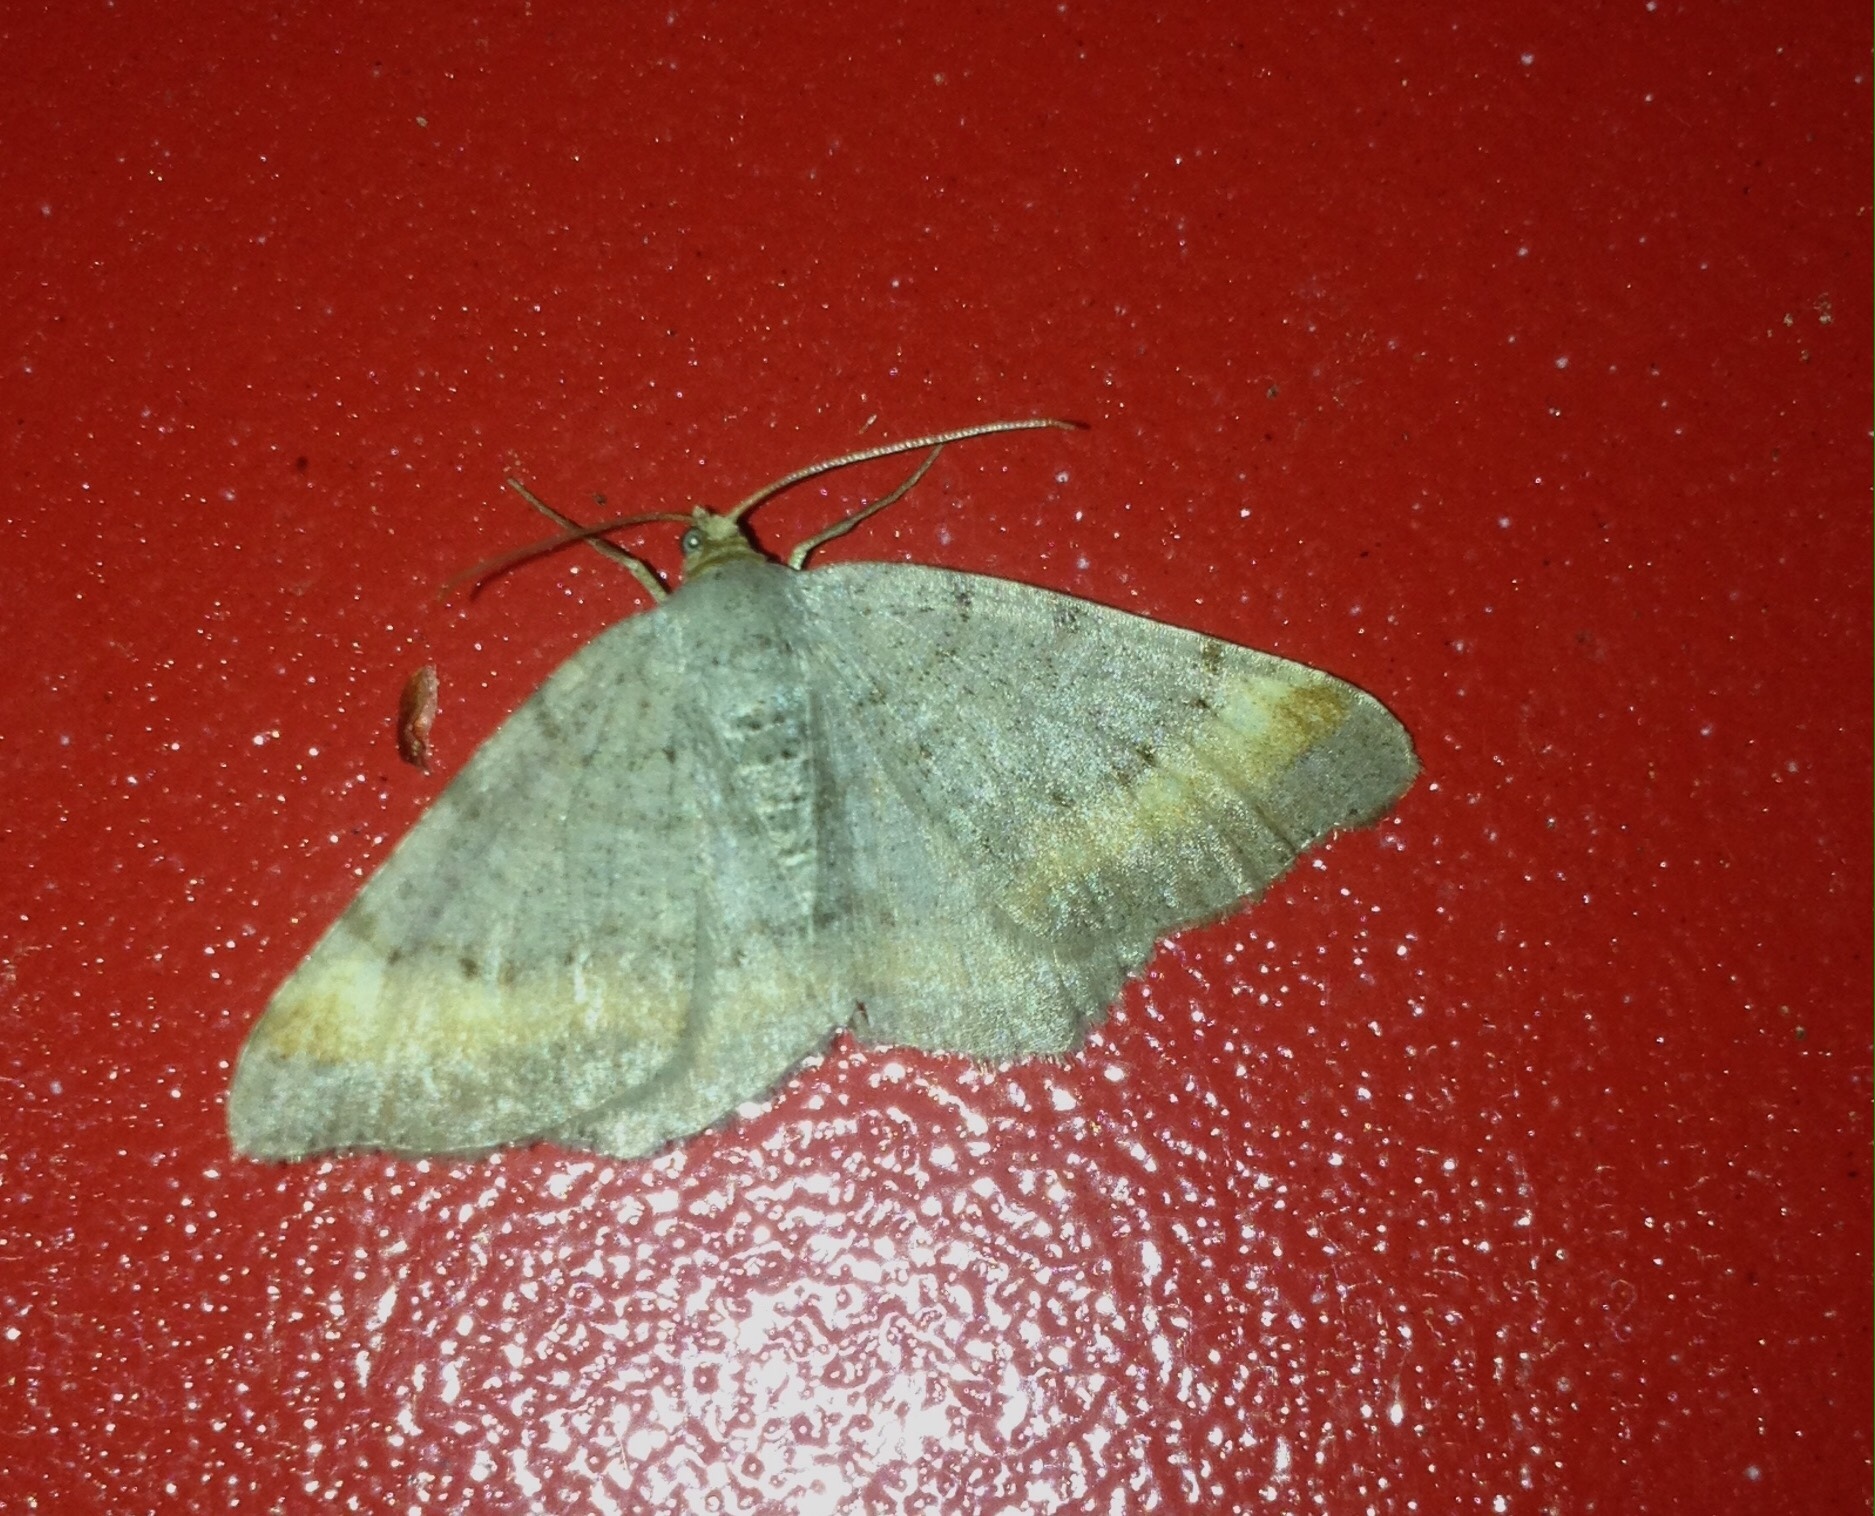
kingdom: Animalia
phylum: Arthropoda
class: Insecta
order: Lepidoptera
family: Geometridae
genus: Macaria
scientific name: Macaria liturata
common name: Tawny-barred angle
